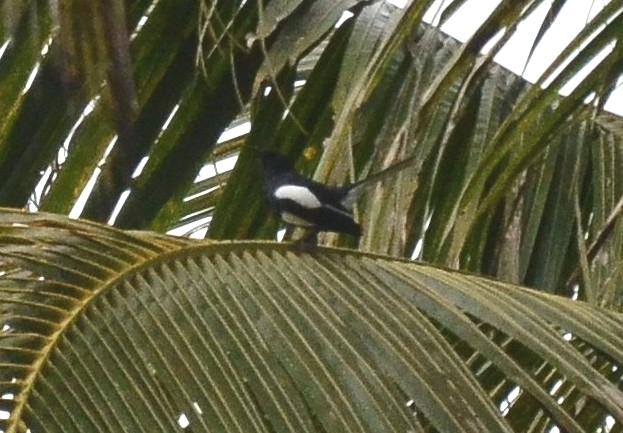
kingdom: Animalia
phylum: Chordata
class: Aves
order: Passeriformes
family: Muscicapidae
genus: Copsychus
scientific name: Copsychus saularis
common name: Oriental magpie-robin
